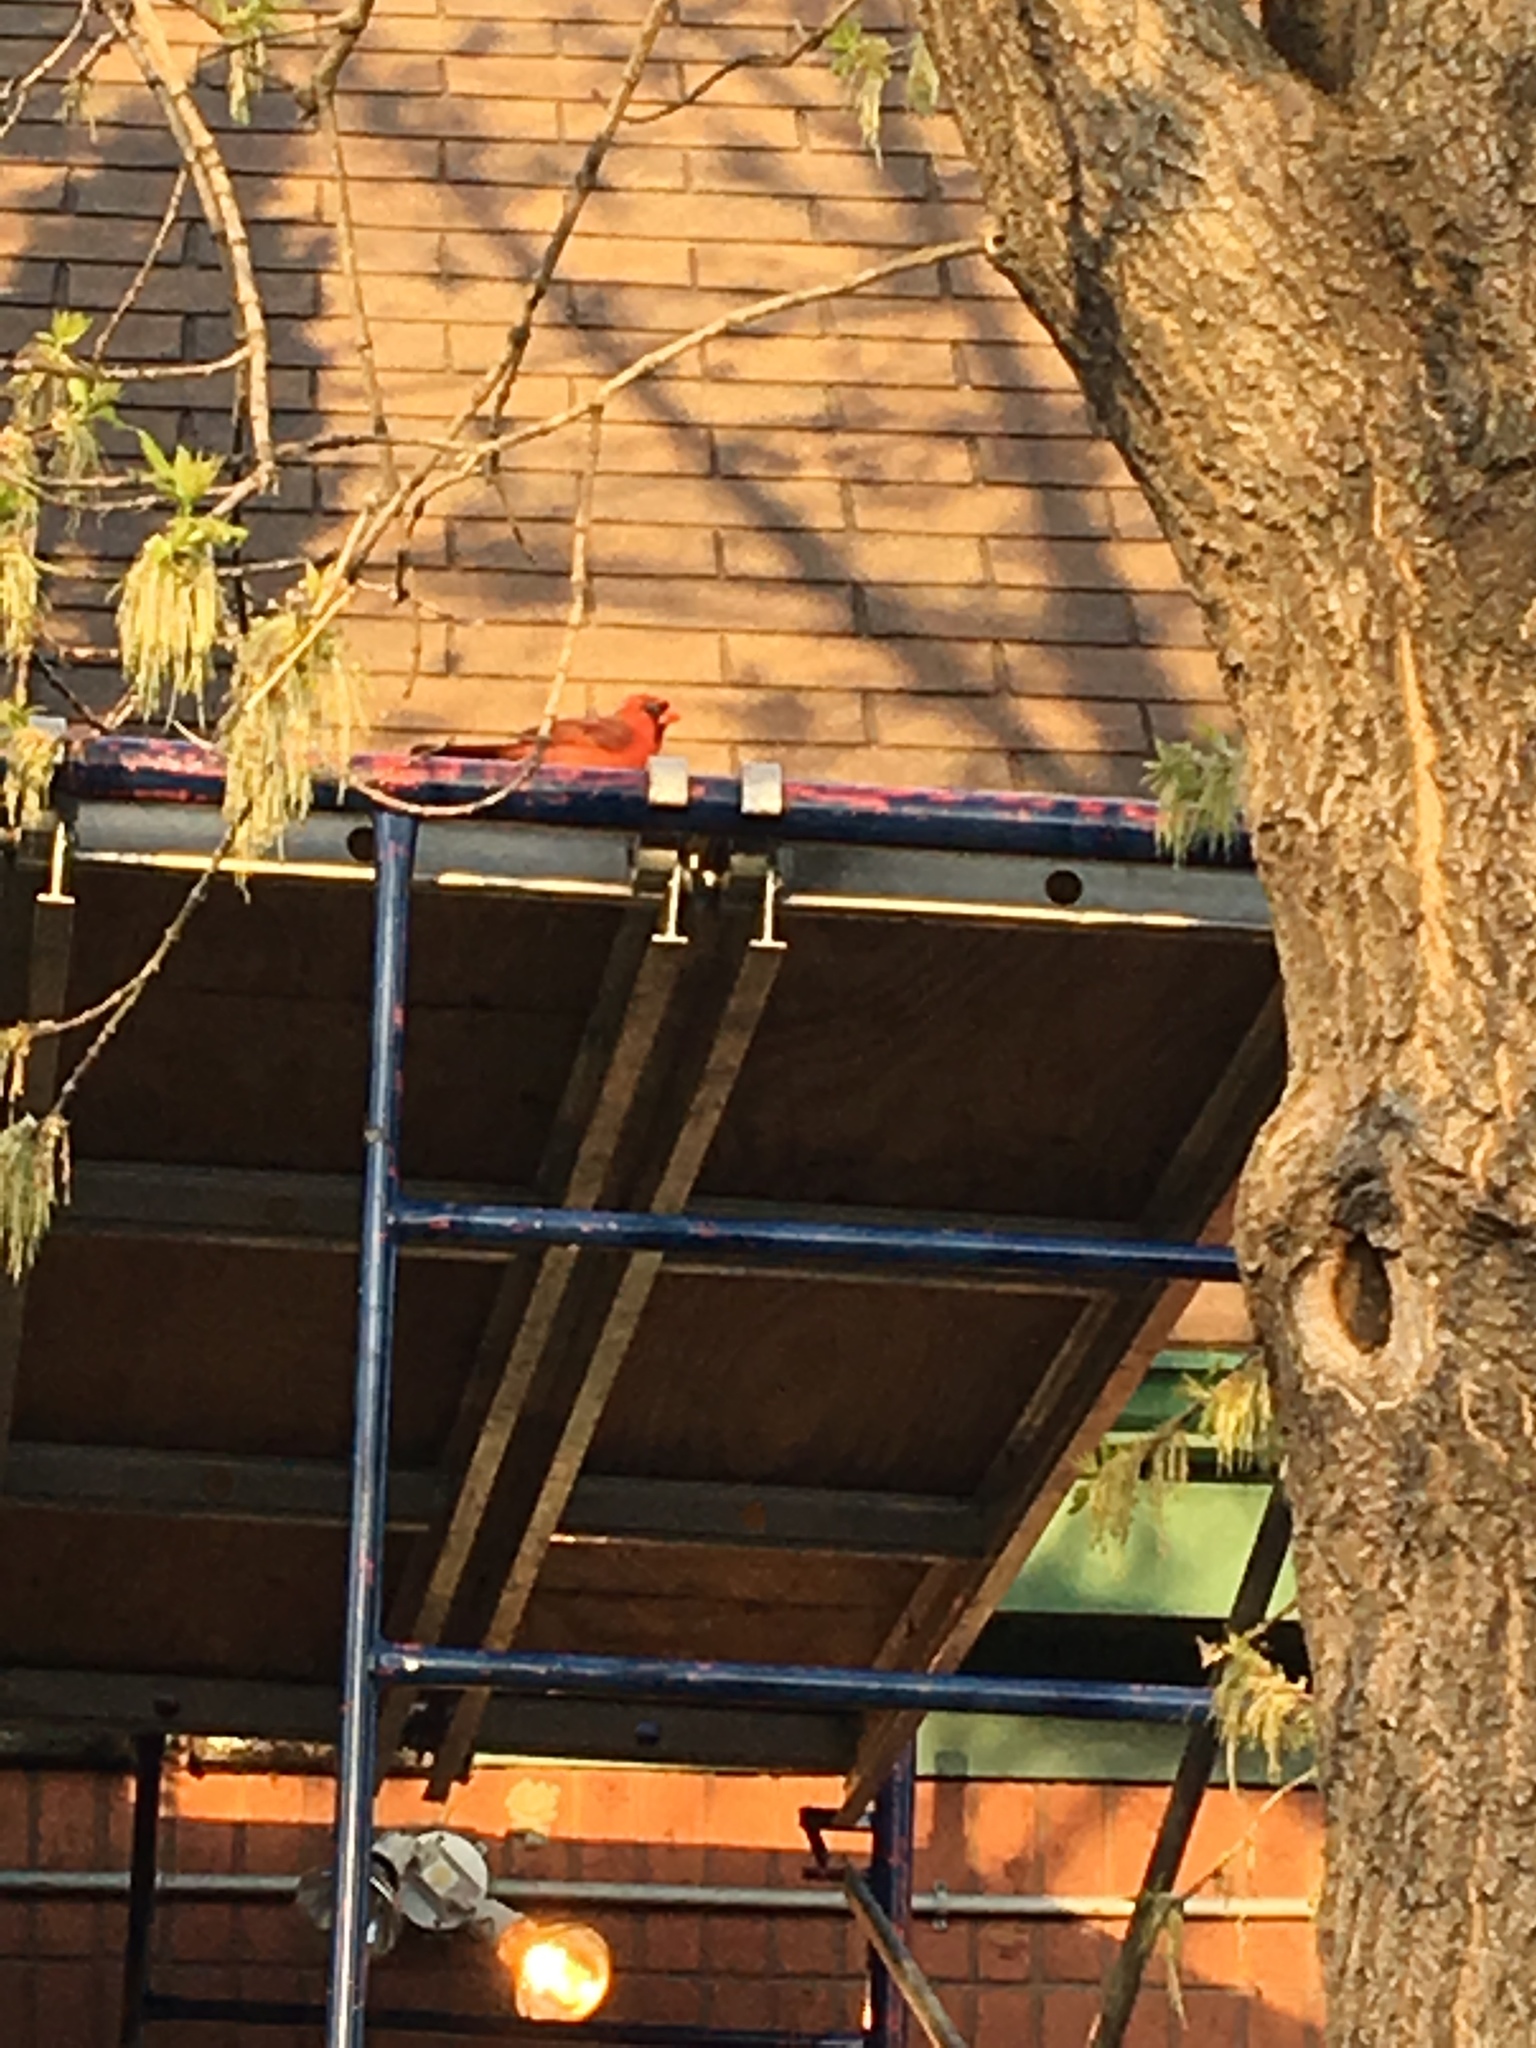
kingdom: Animalia
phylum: Chordata
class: Aves
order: Passeriformes
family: Cardinalidae
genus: Cardinalis
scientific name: Cardinalis cardinalis
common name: Northern cardinal
